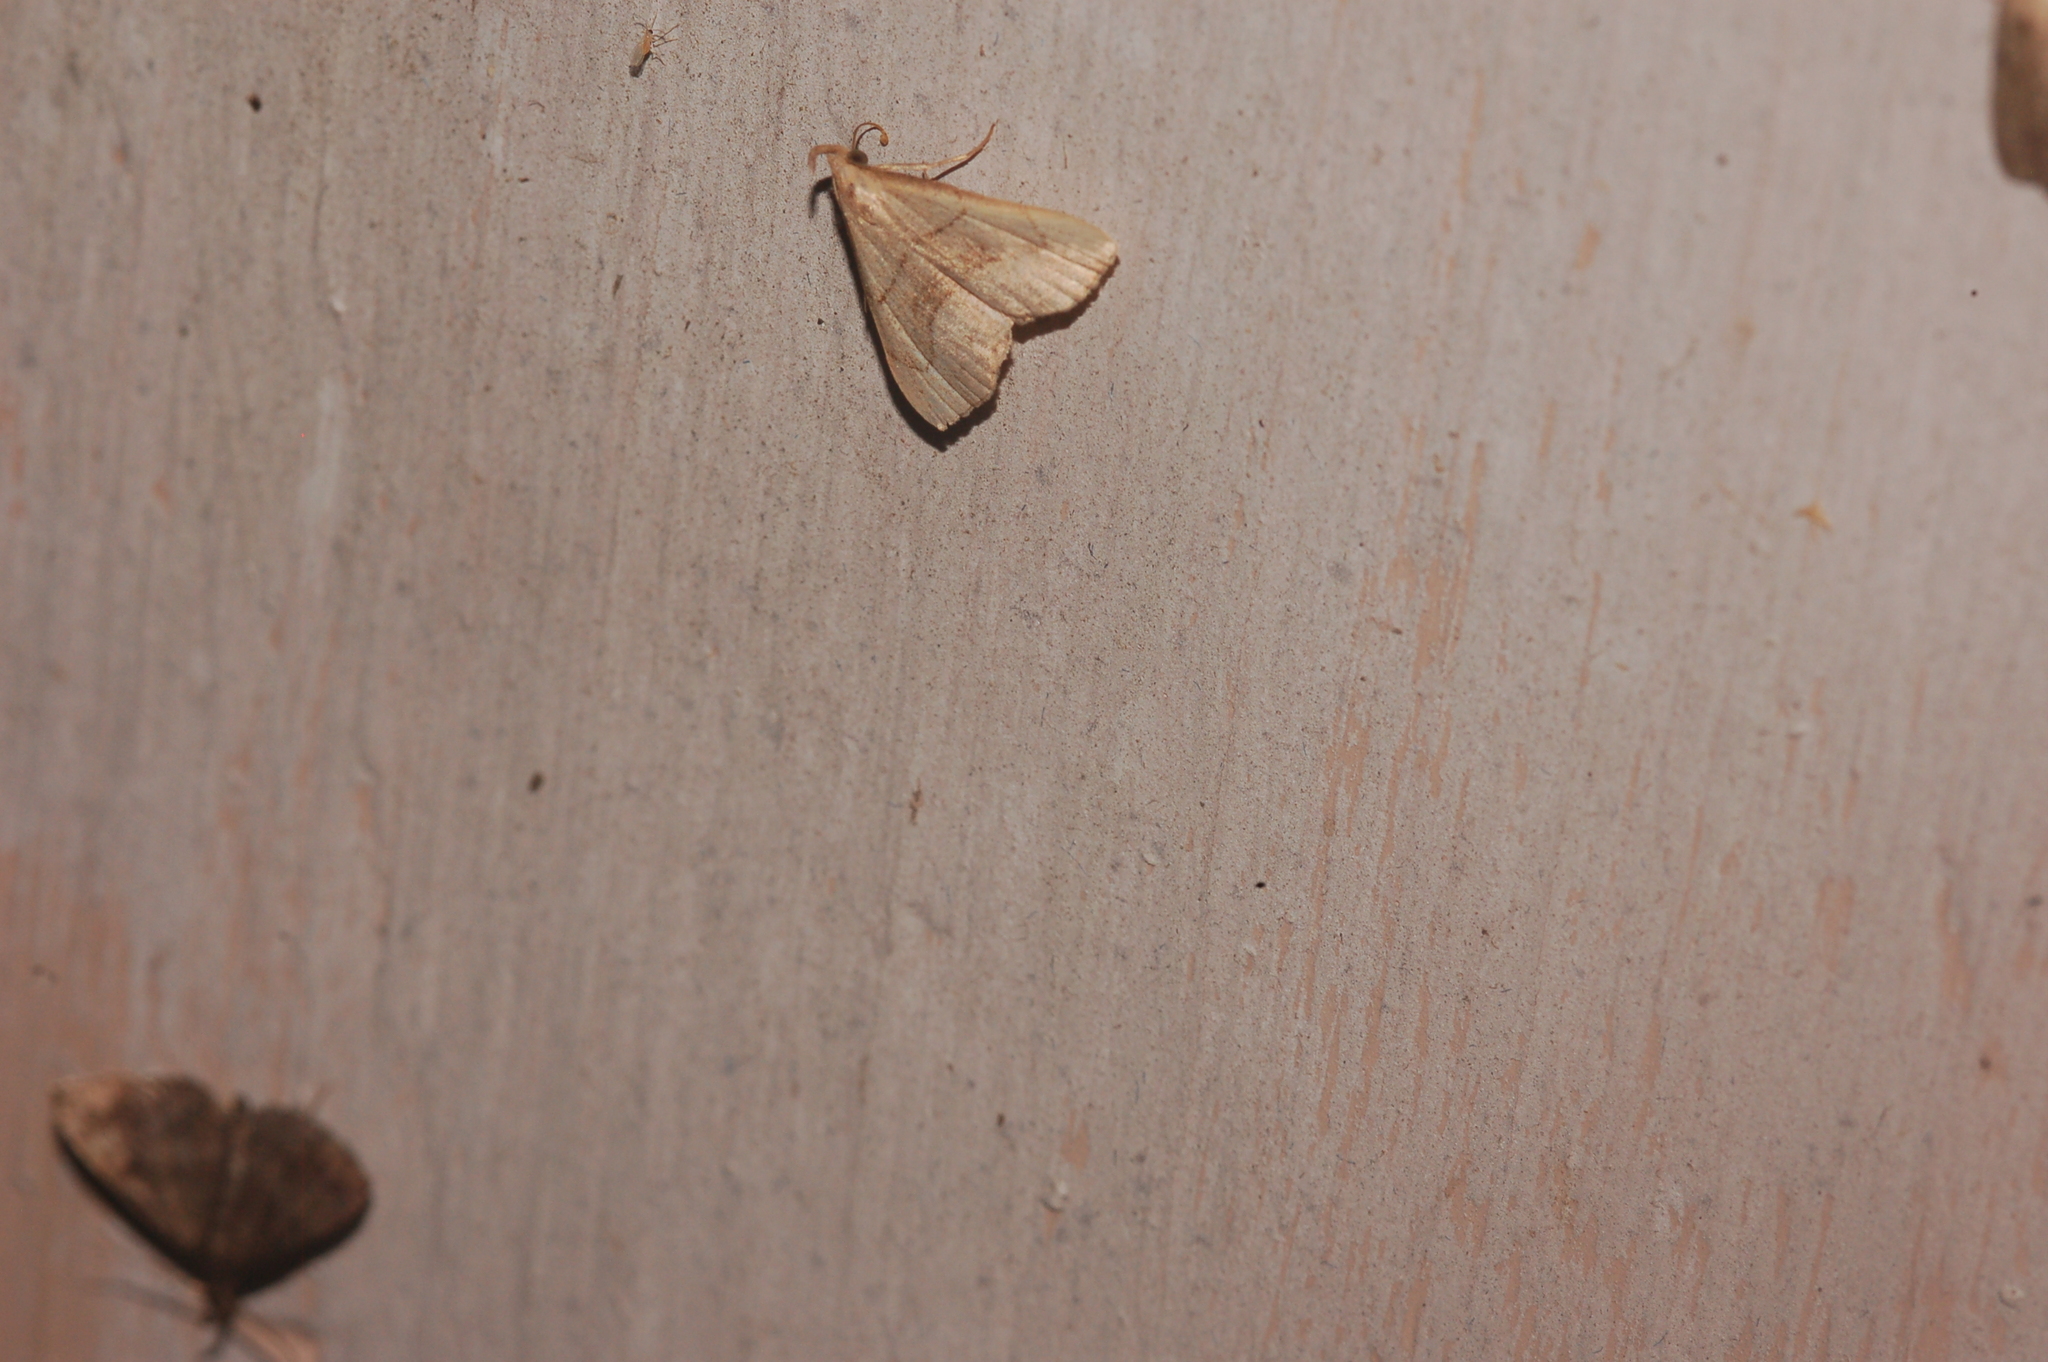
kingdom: Animalia
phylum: Arthropoda
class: Insecta
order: Lepidoptera
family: Erebidae
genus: Macrochilo
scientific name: Macrochilo litophora
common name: Brown-lined owlet
